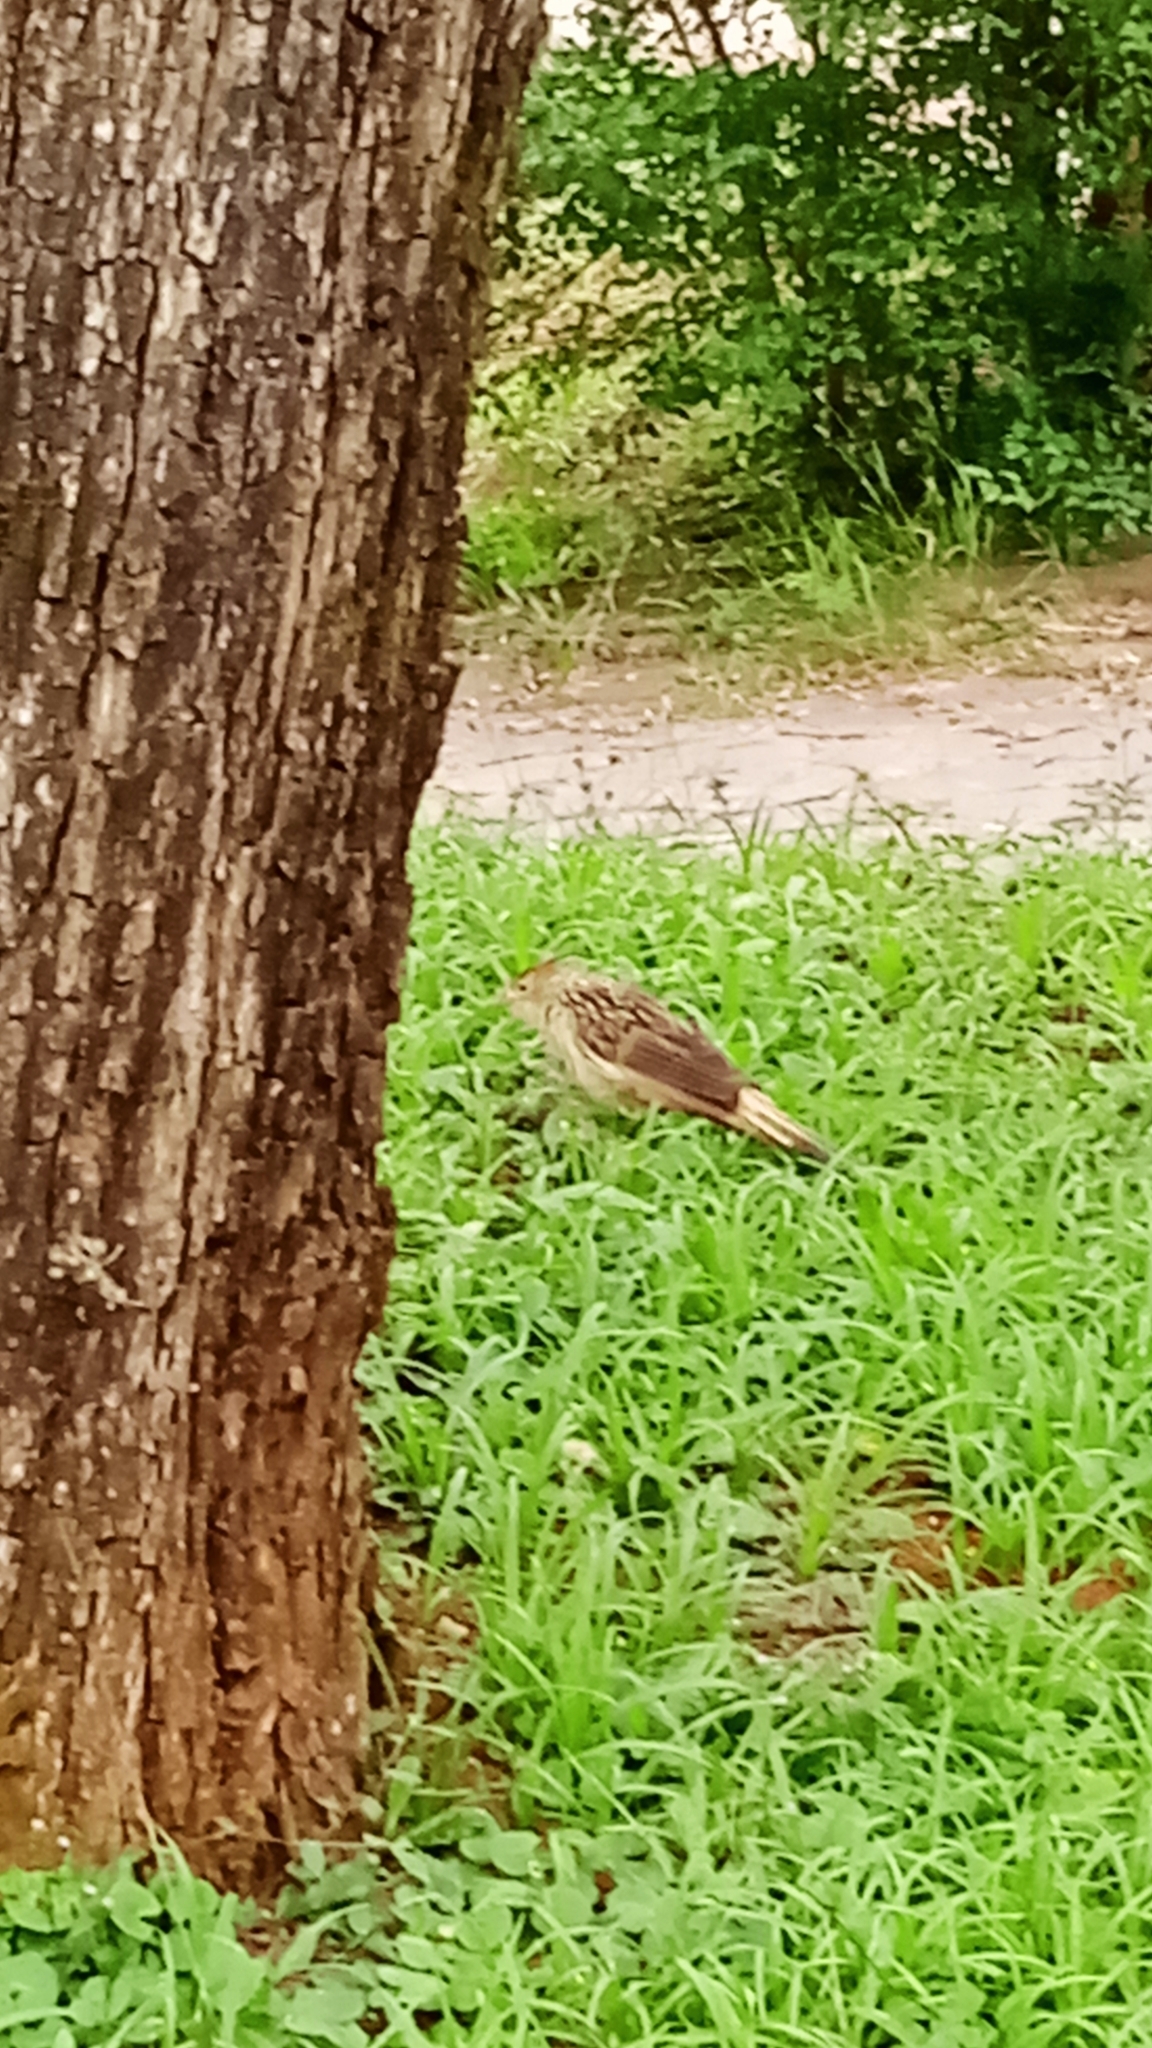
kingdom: Animalia
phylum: Chordata
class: Aves
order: Cuculiformes
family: Cuculidae
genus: Guira
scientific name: Guira guira
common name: Guira cuckoo
